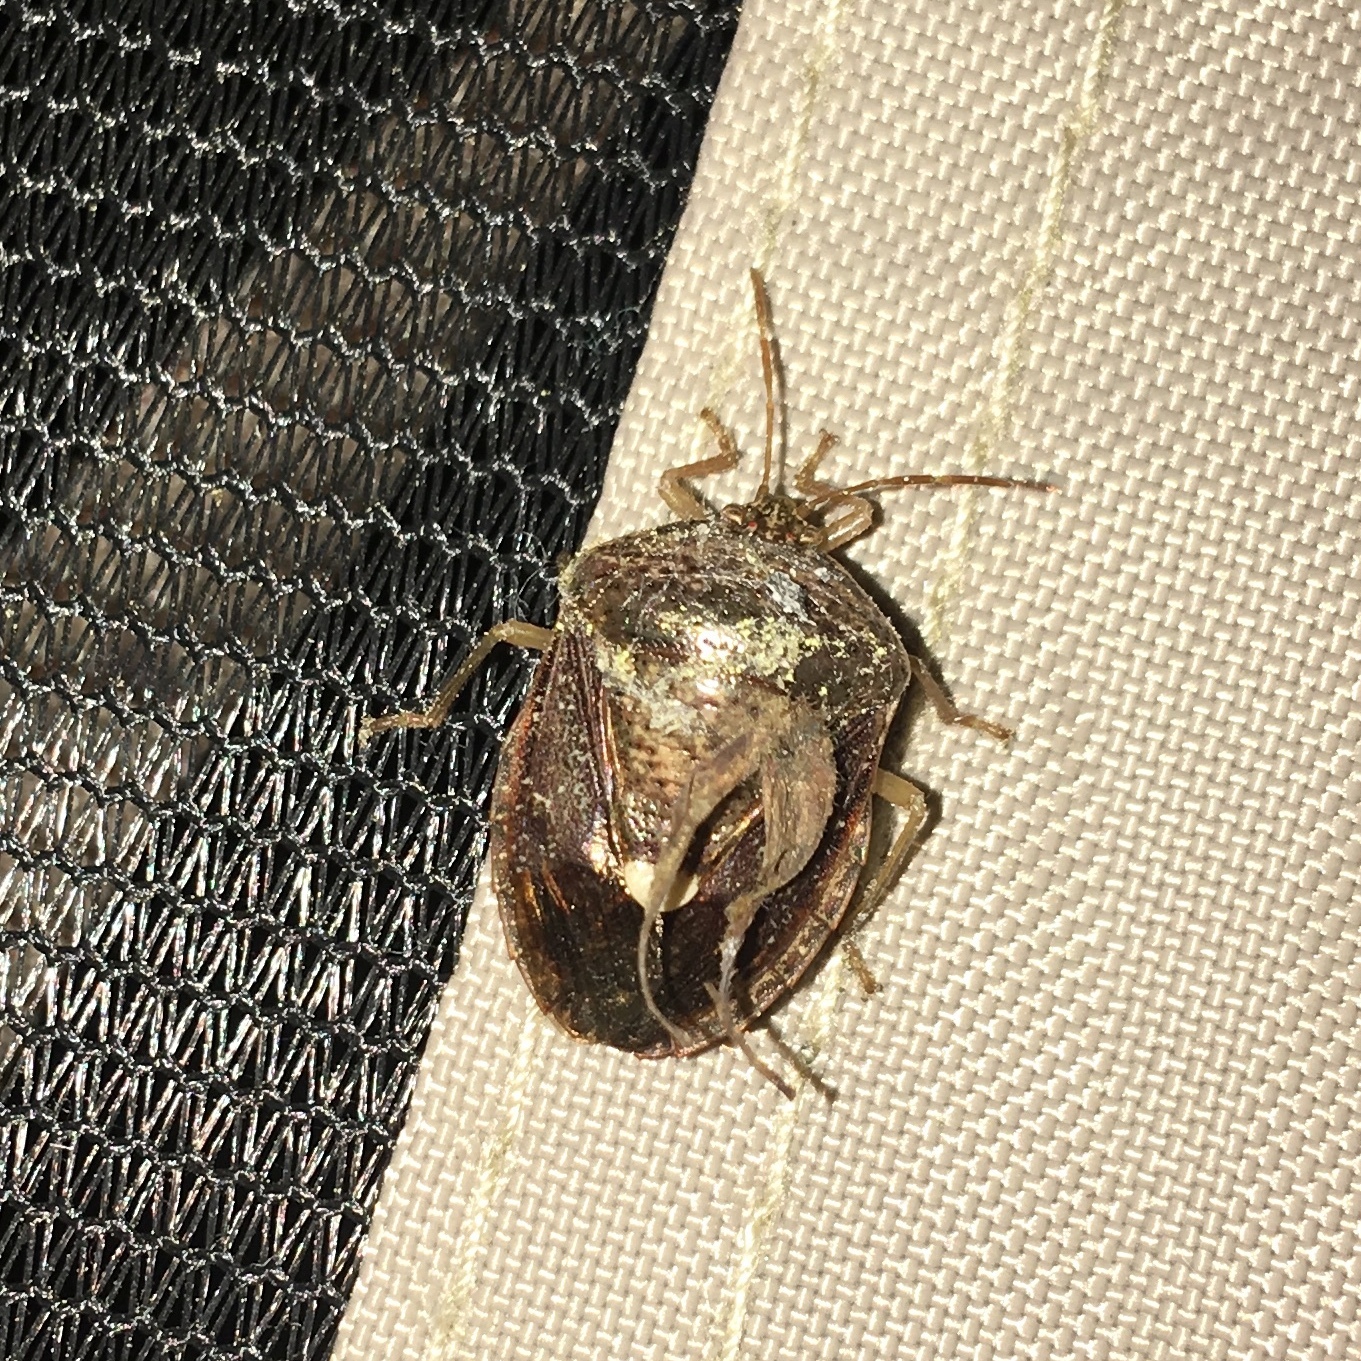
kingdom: Animalia
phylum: Arthropoda
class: Insecta
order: Hemiptera
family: Pentatomidae
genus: Edessa
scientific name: Edessa bifida
